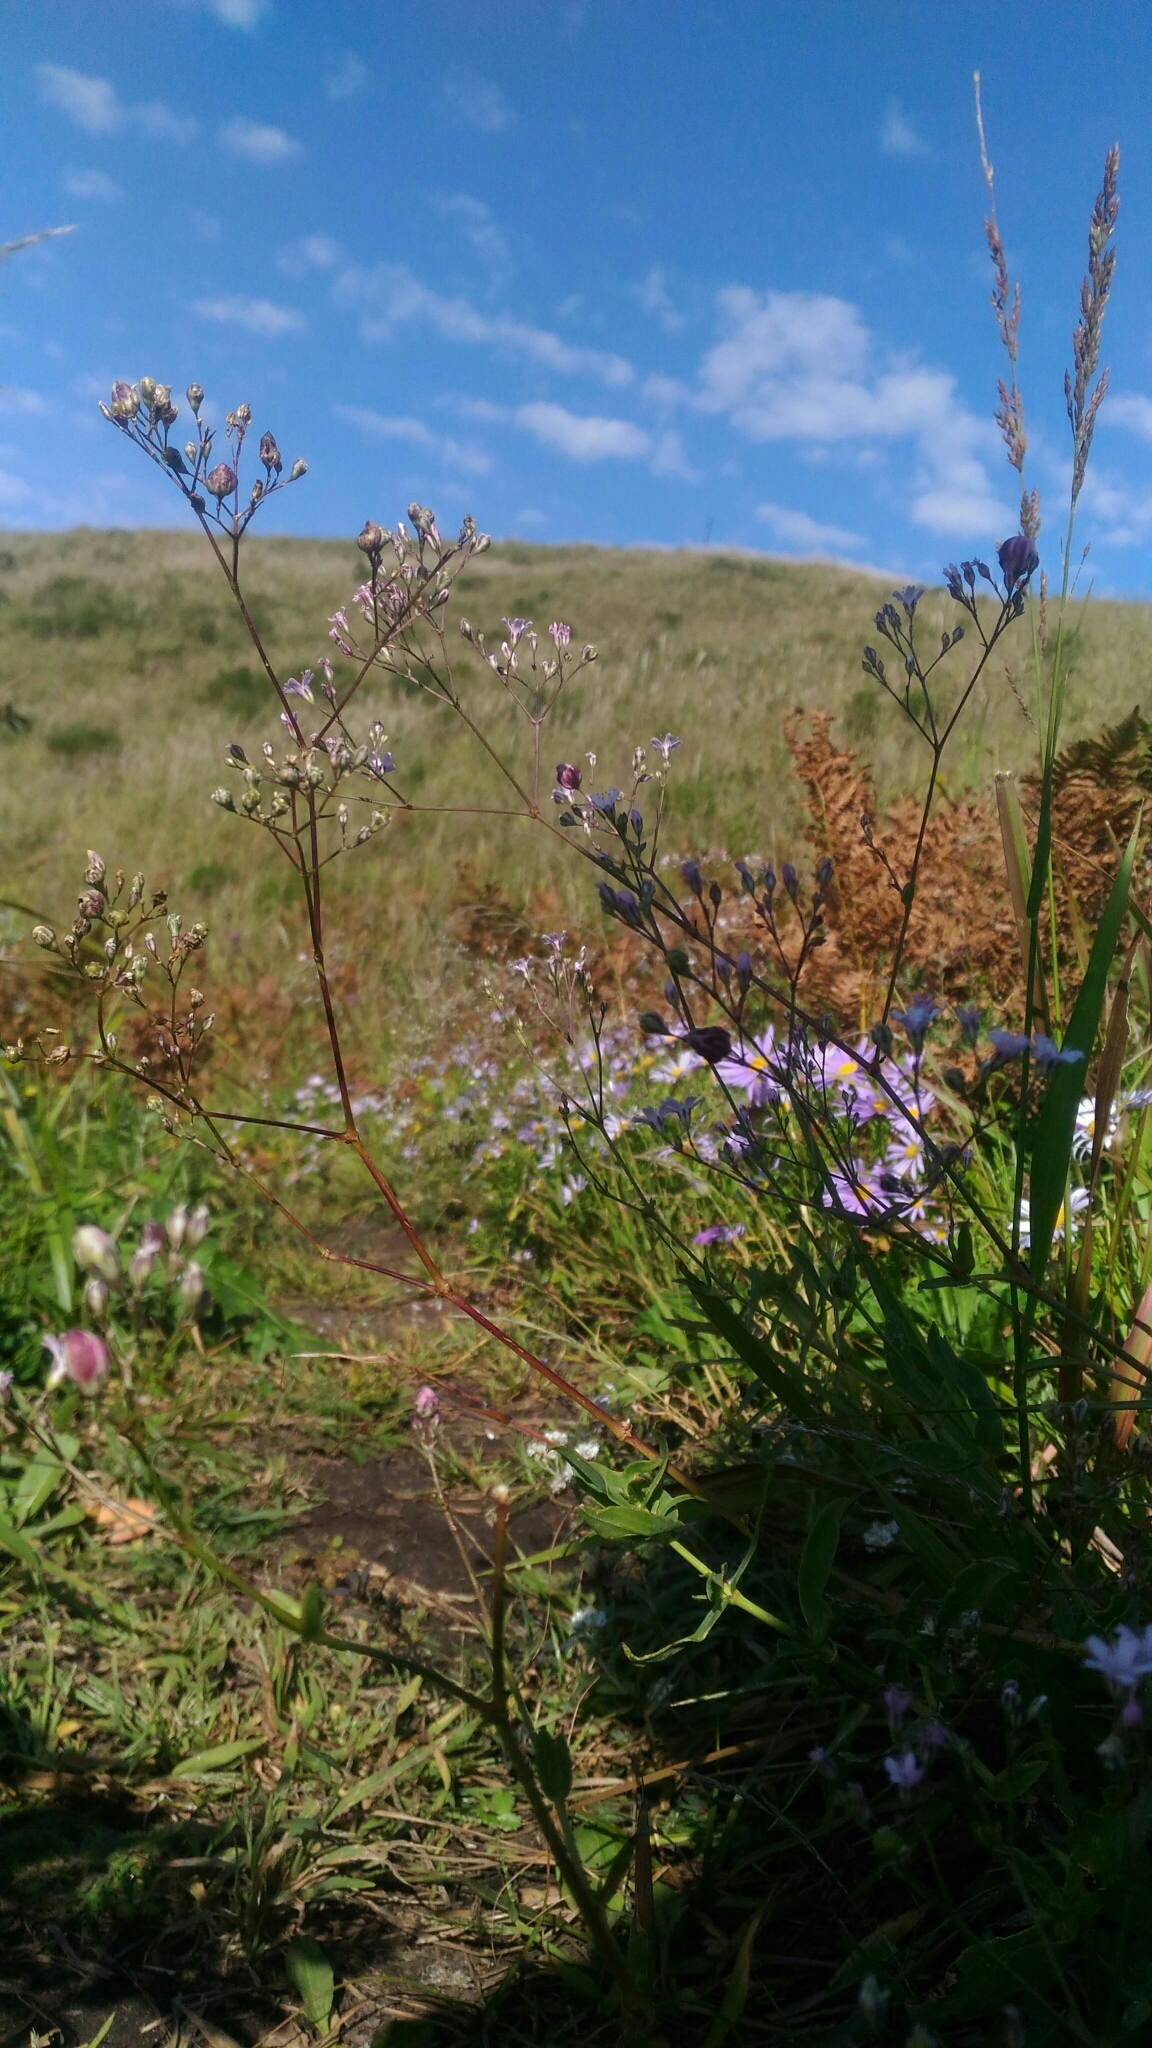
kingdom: Plantae
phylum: Tracheophyta
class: Magnoliopsida
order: Caryophyllales
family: Caryophyllaceae
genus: Gypsophila
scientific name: Gypsophila pacifica
